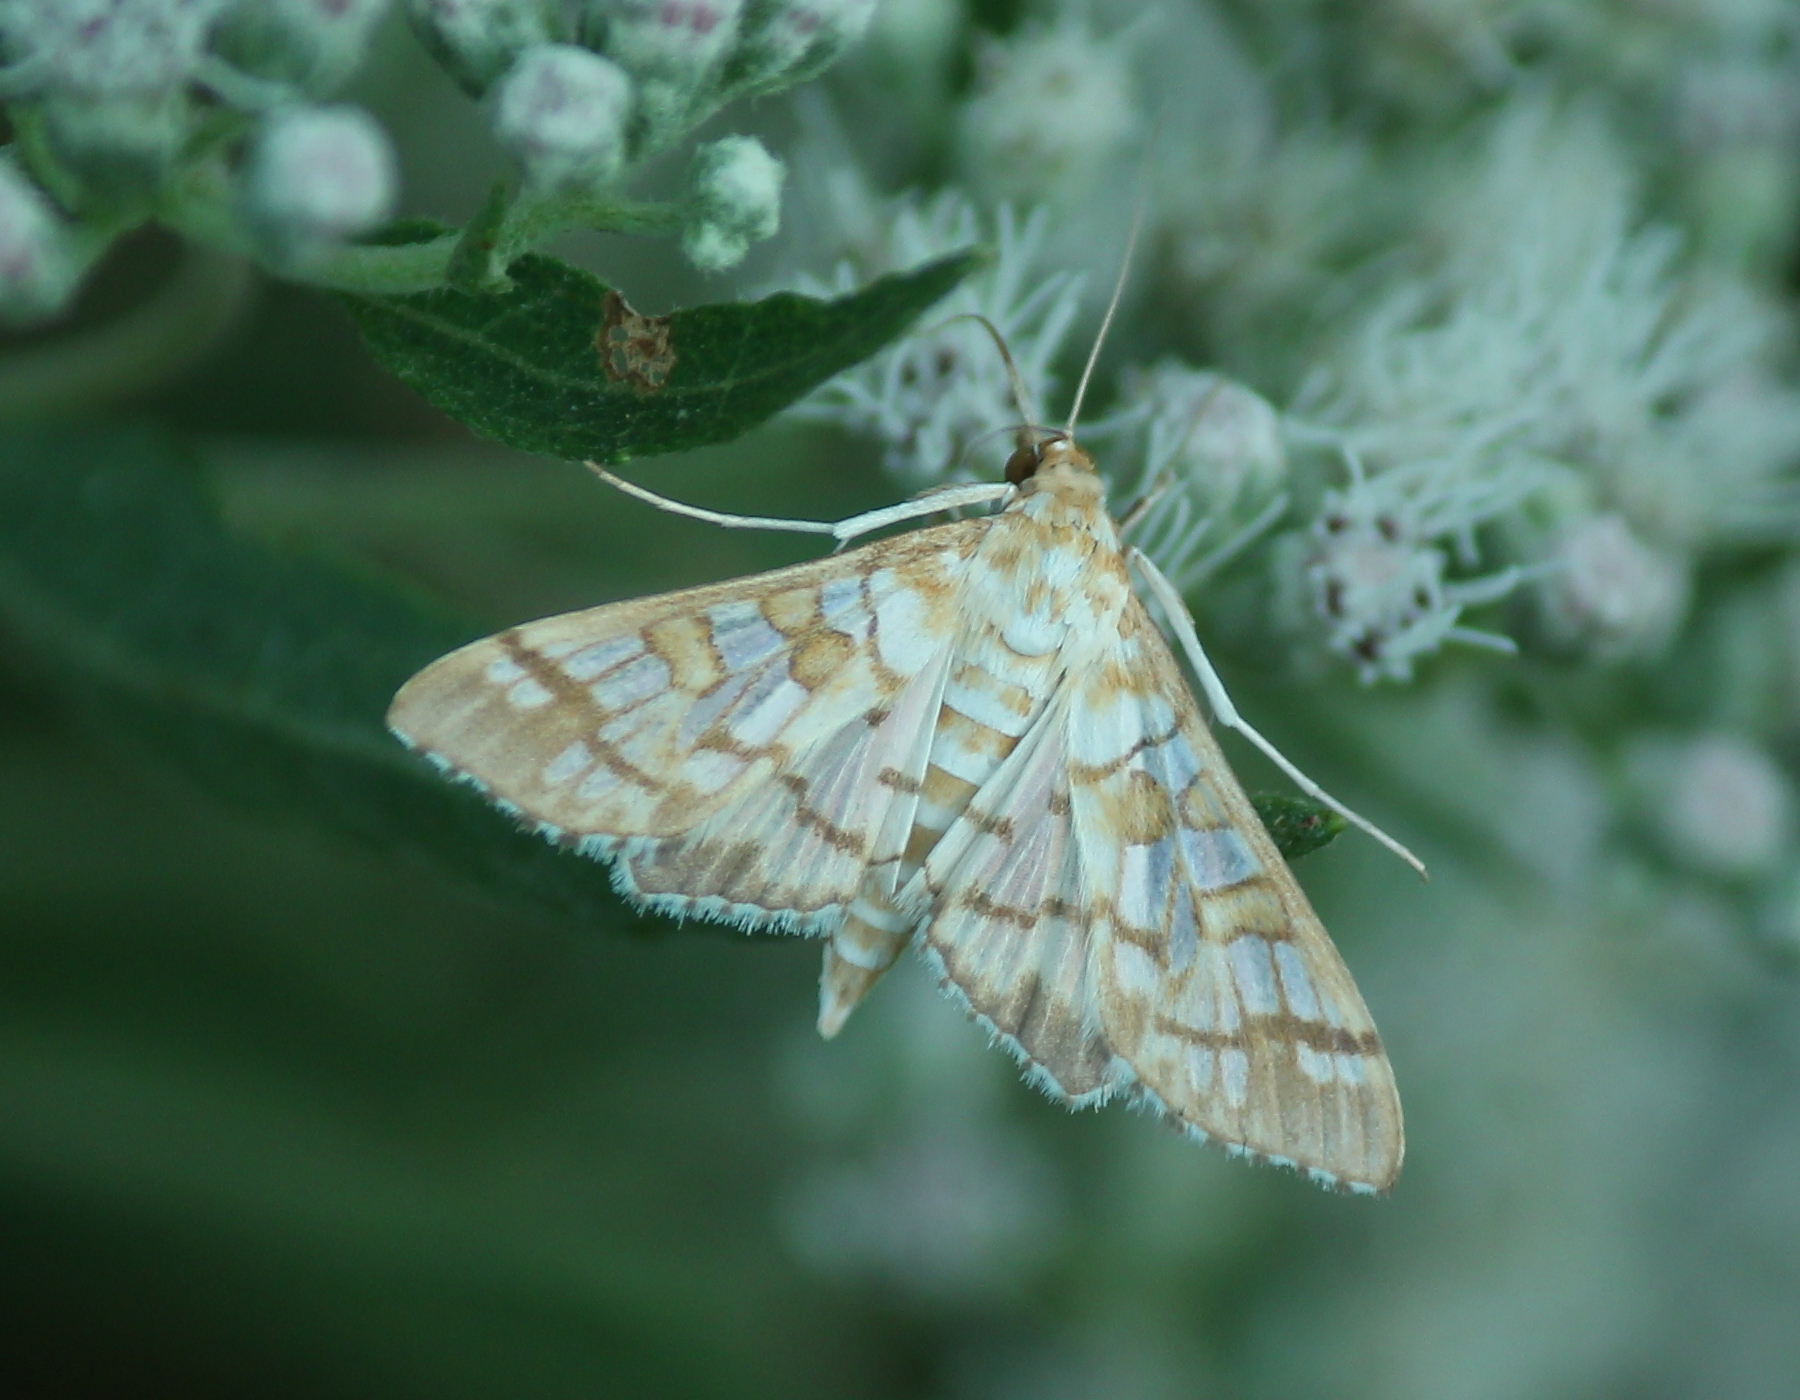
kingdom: Animalia
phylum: Arthropoda
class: Insecta
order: Lepidoptera
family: Crambidae
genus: Epipagis
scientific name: Epipagis fenestralis
